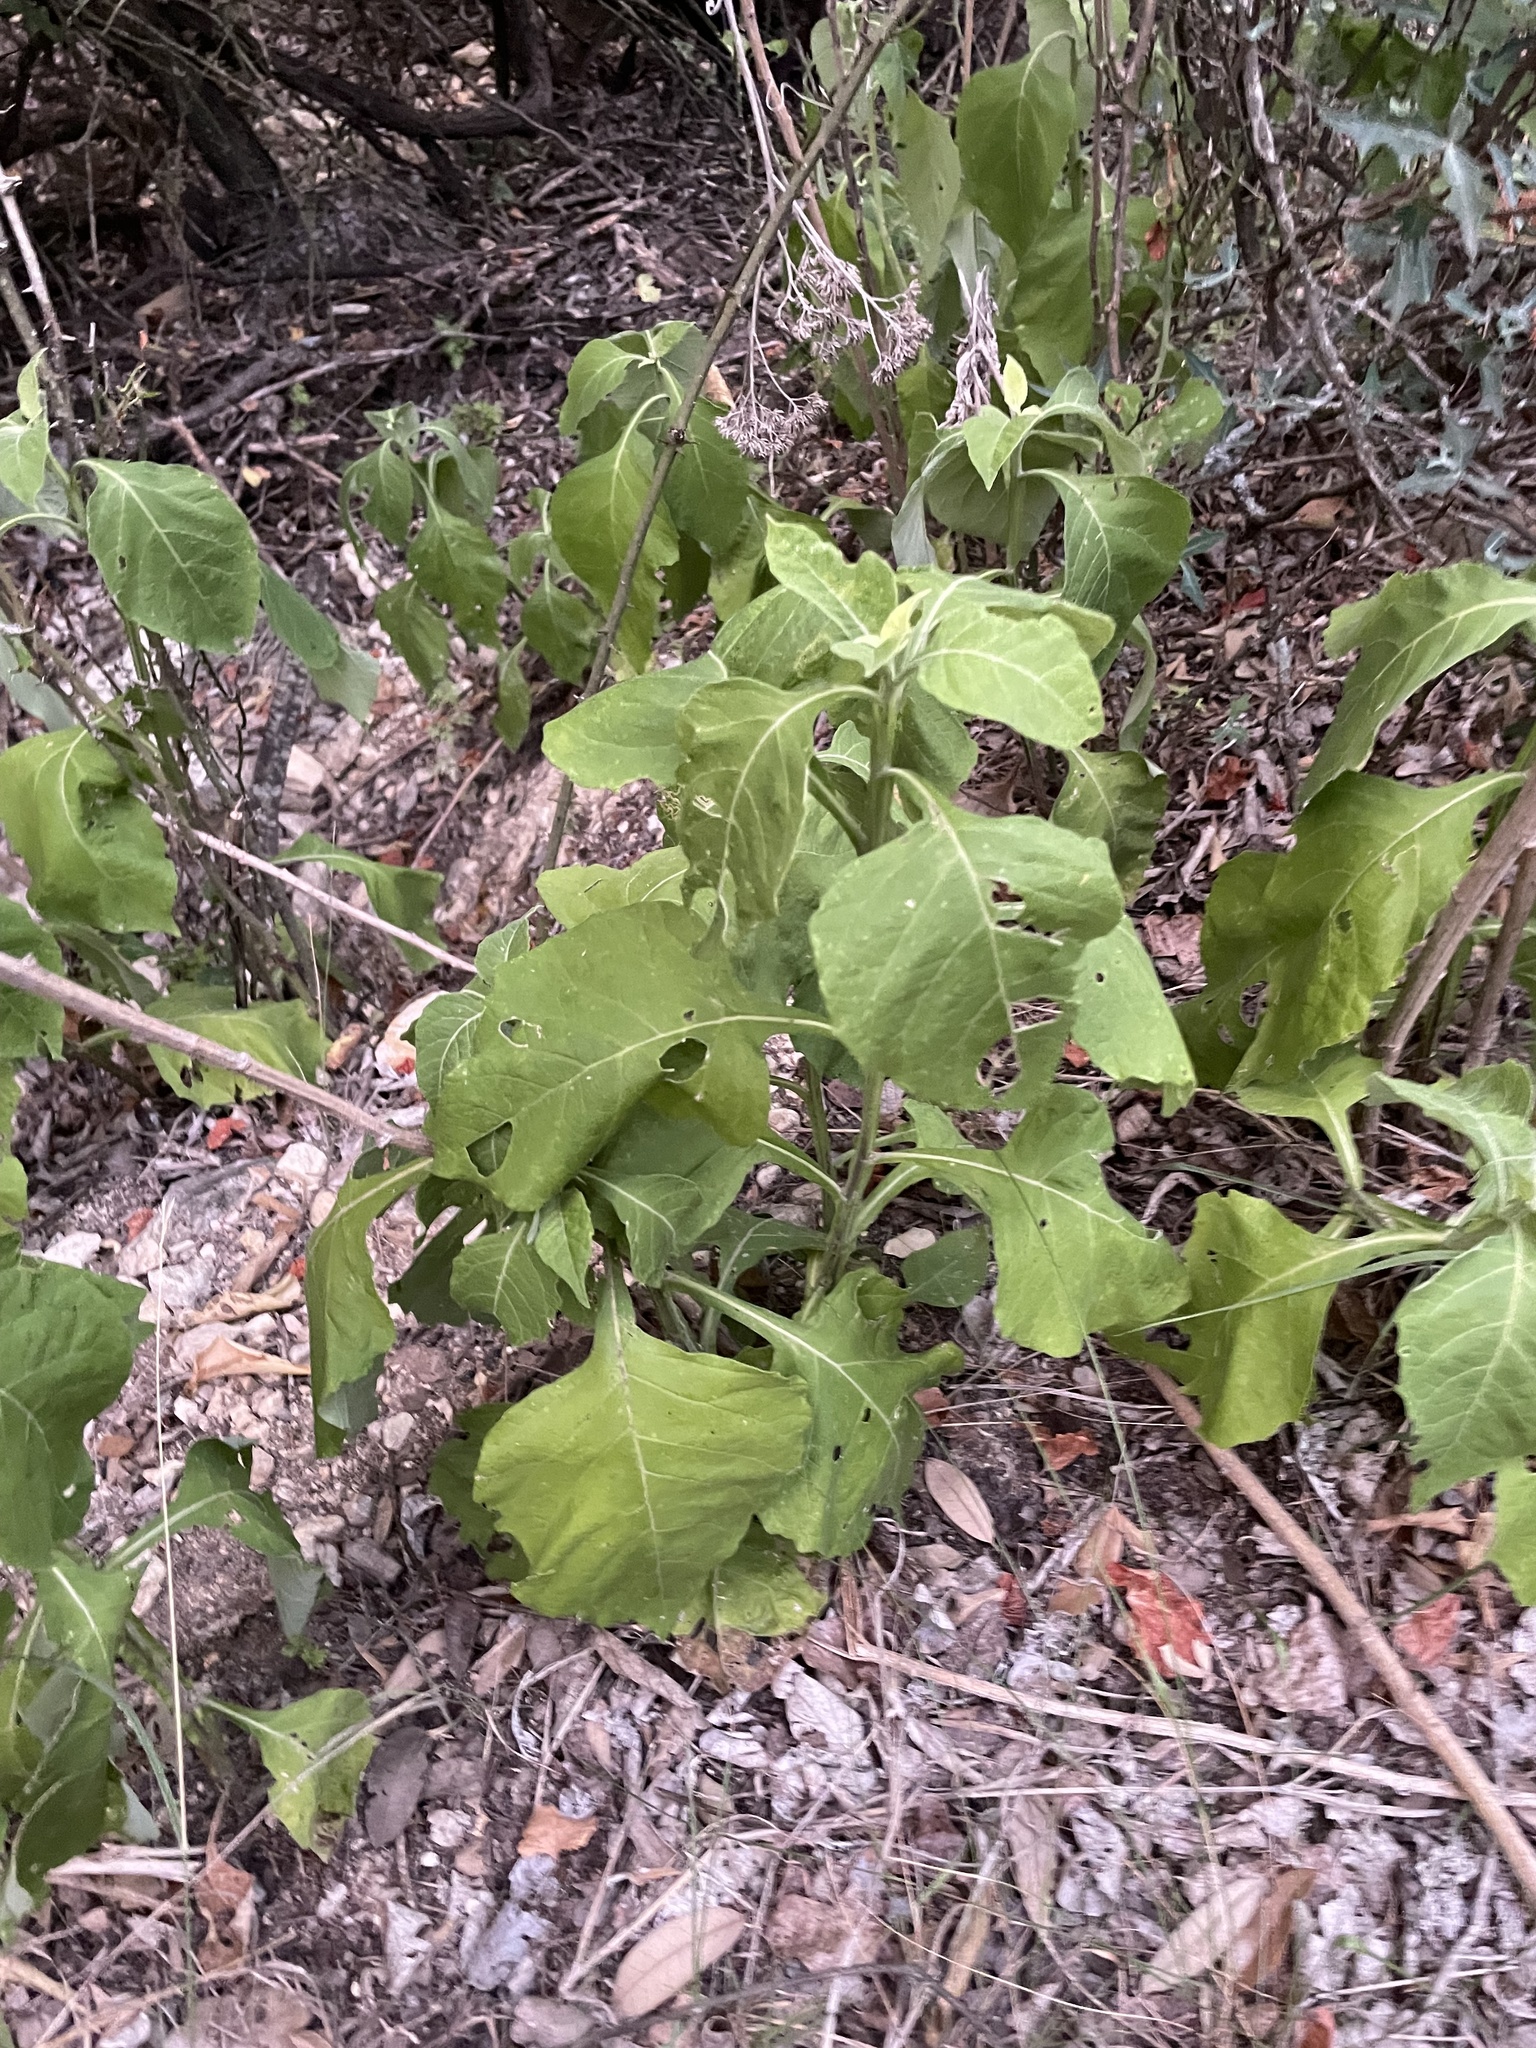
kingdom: Plantae
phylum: Tracheophyta
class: Magnoliopsida
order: Asterales
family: Asteraceae
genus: Verbesina
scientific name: Verbesina virginica
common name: Frostweed
